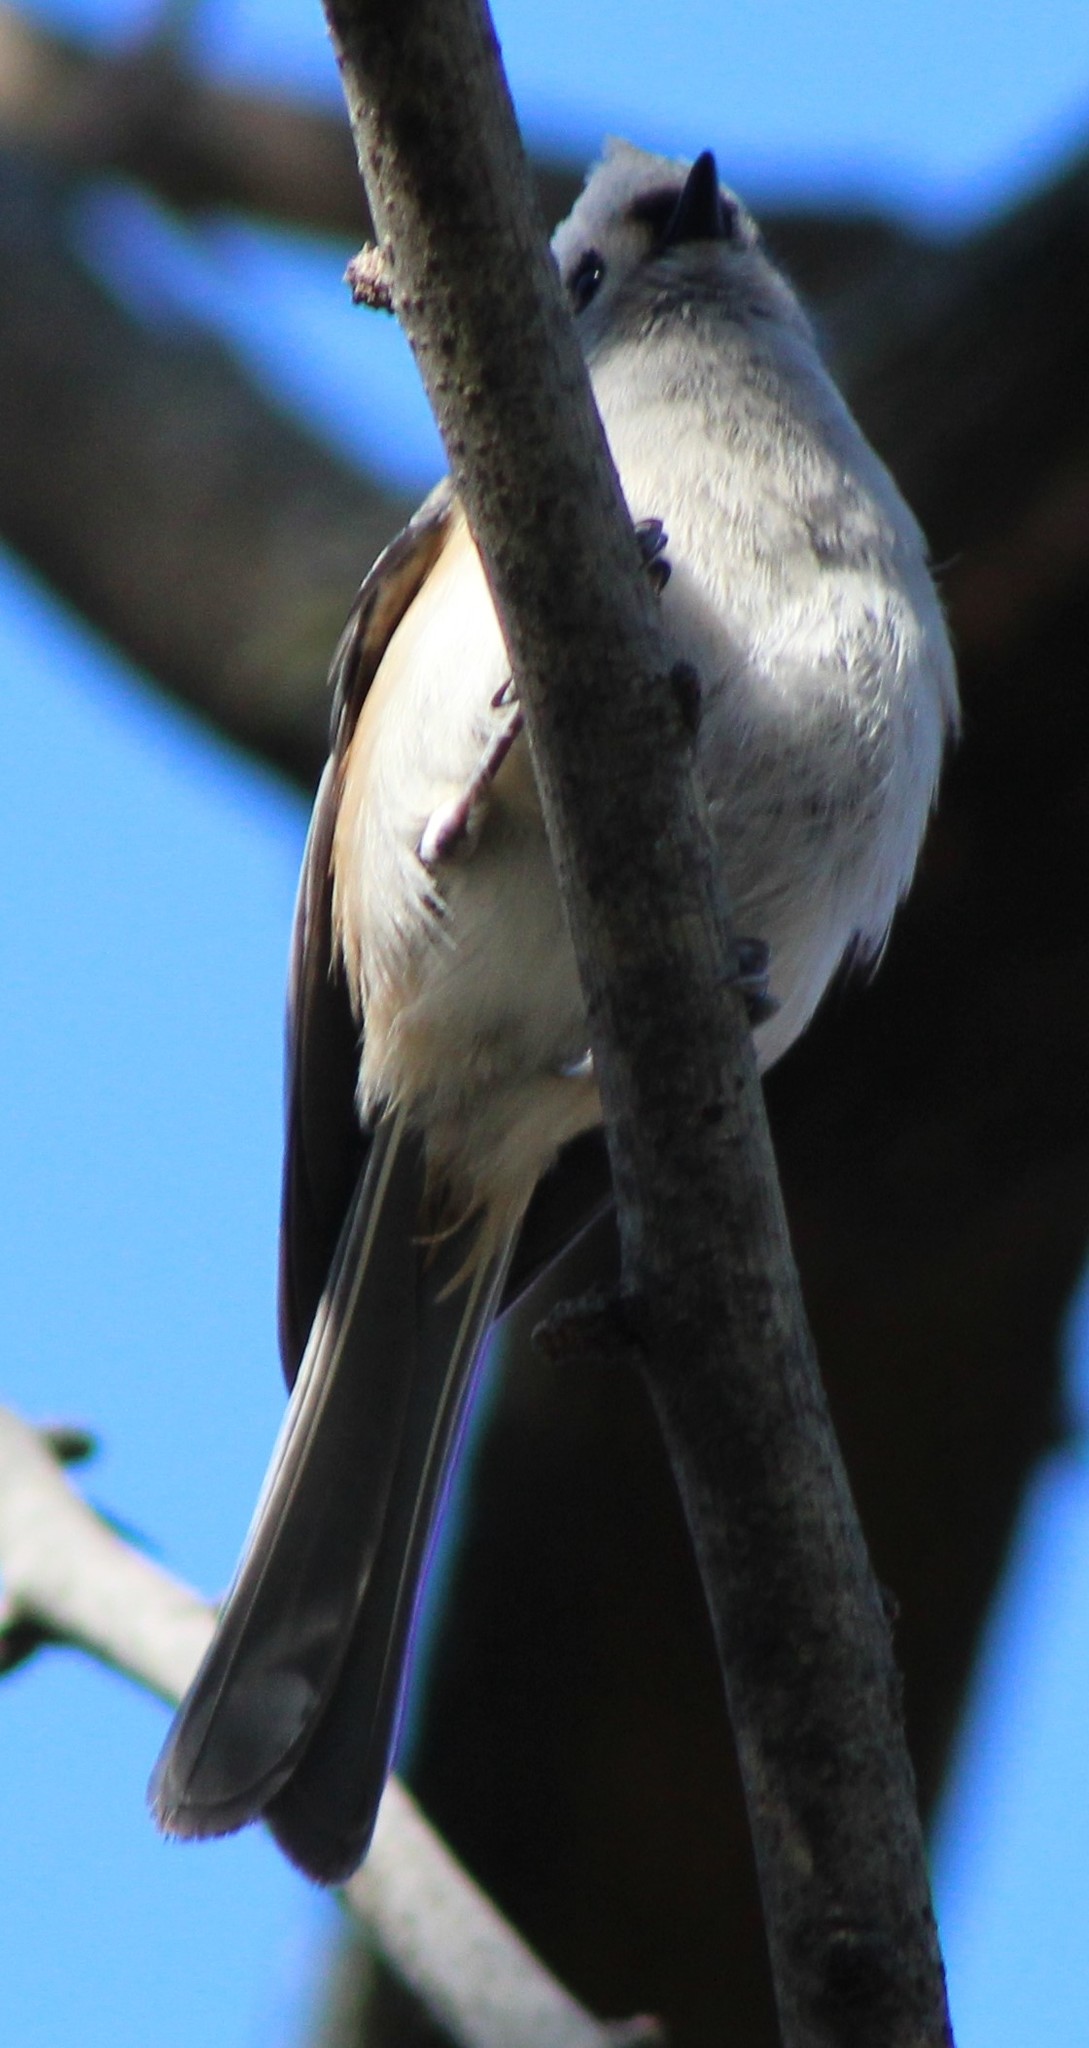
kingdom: Animalia
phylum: Chordata
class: Aves
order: Passeriformes
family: Paridae
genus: Baeolophus
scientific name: Baeolophus bicolor
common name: Tufted titmouse
